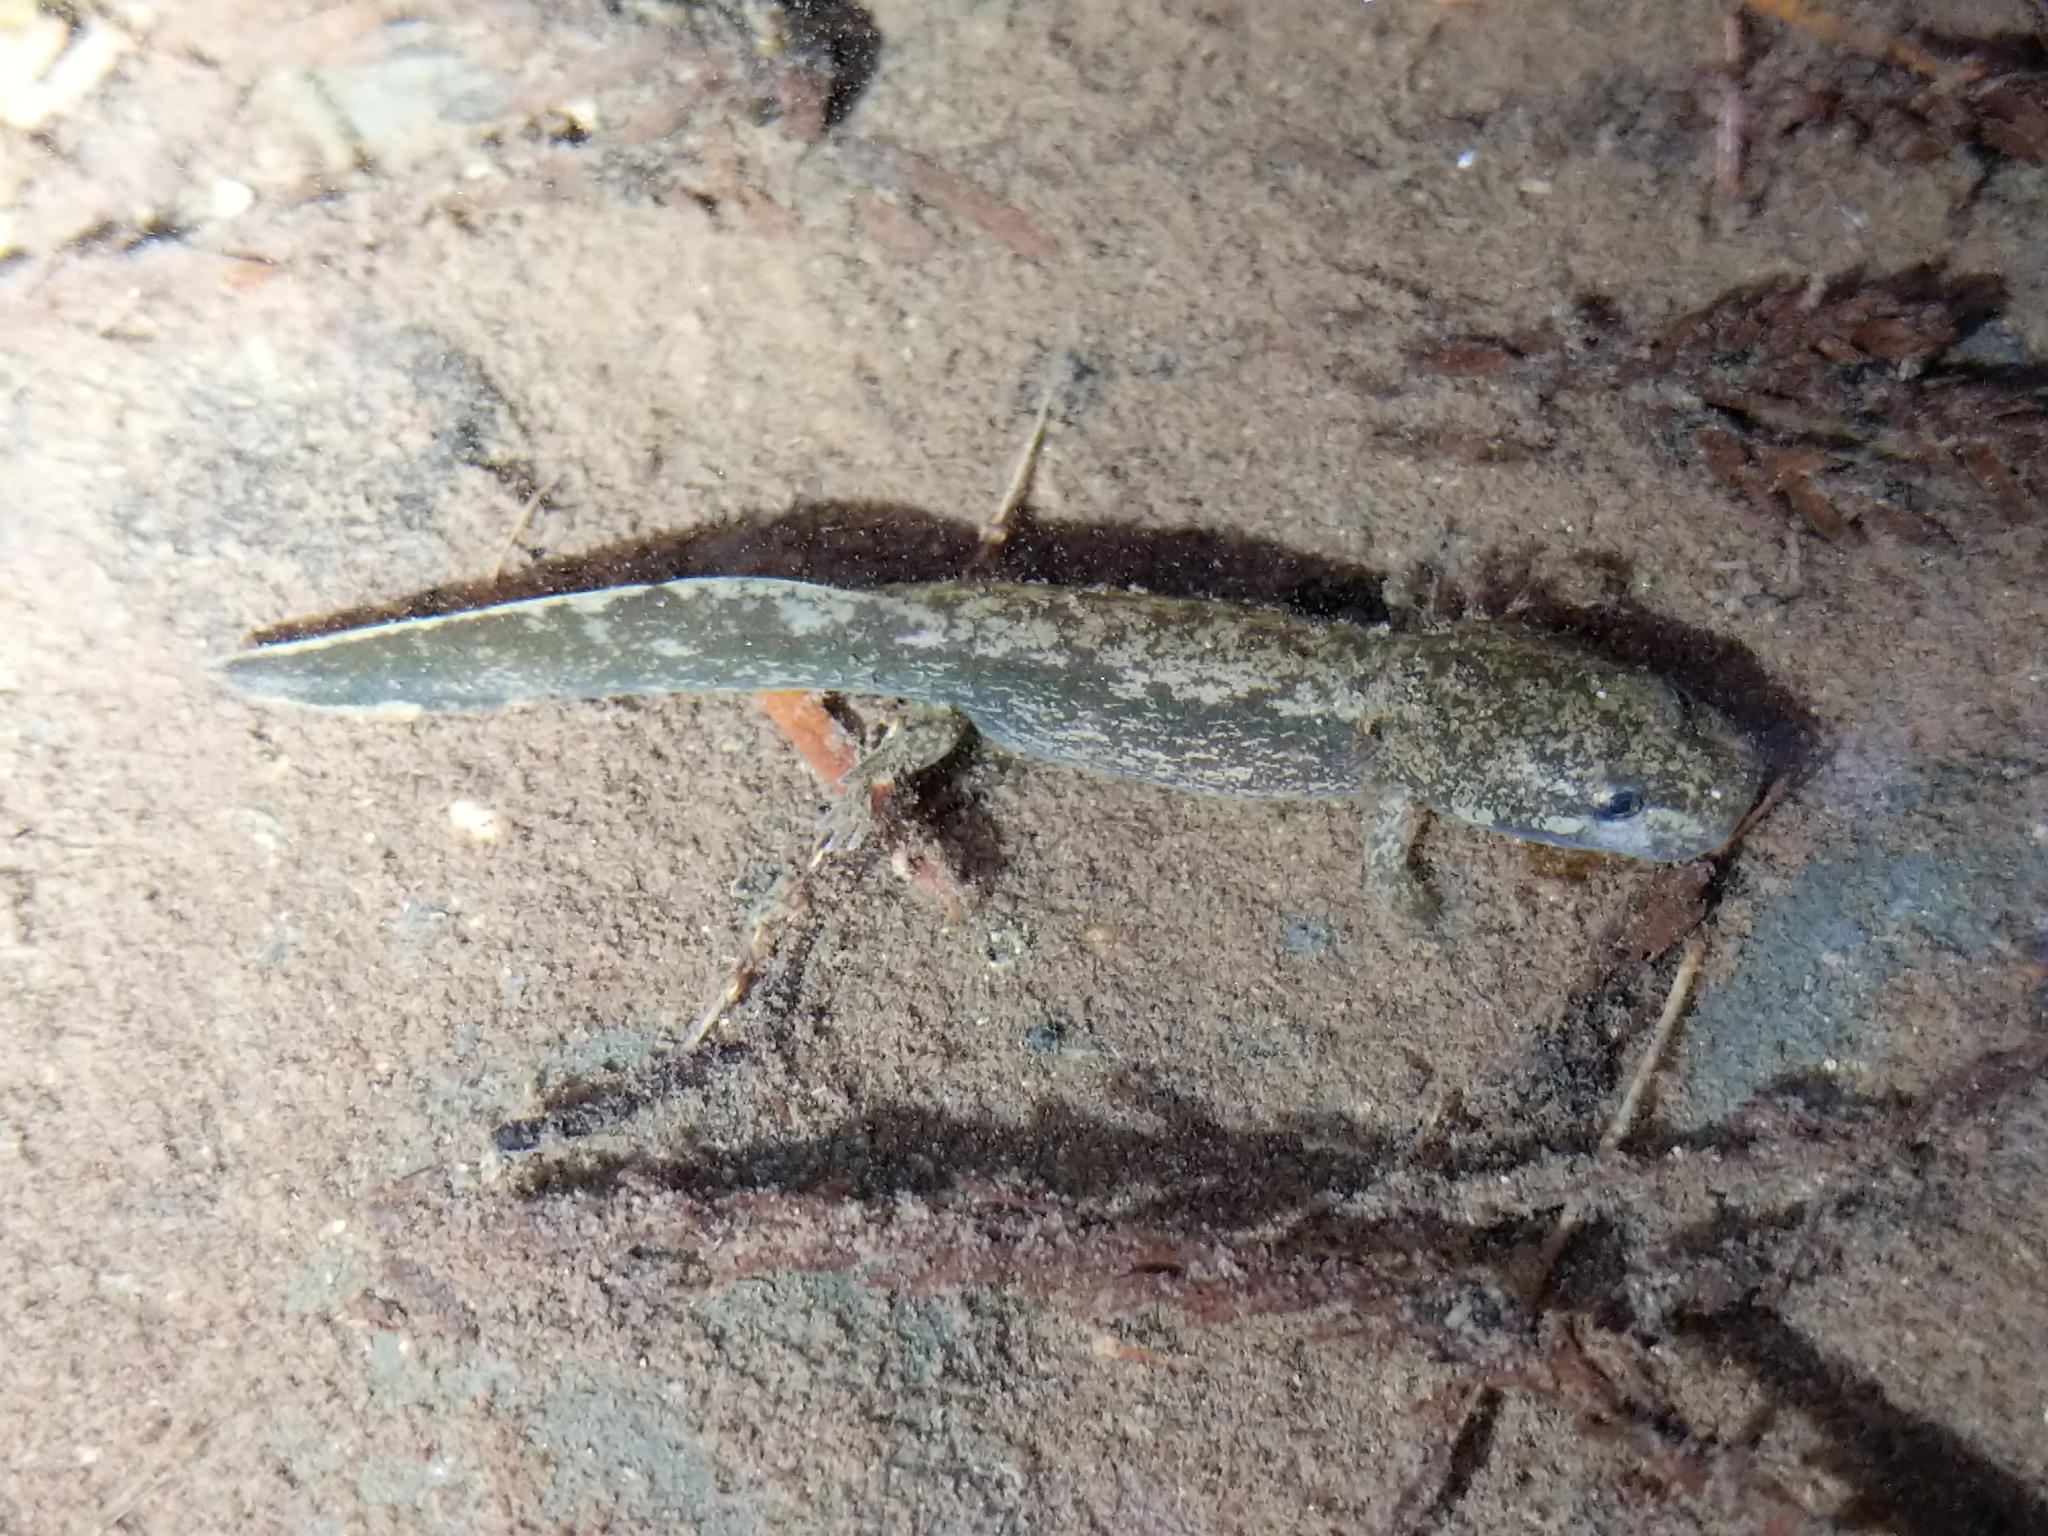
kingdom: Animalia
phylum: Chordata
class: Amphibia
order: Caudata
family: Ambystomatidae
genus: Dicamptodon
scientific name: Dicamptodon tenebrosus
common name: Coastal giant salamander
